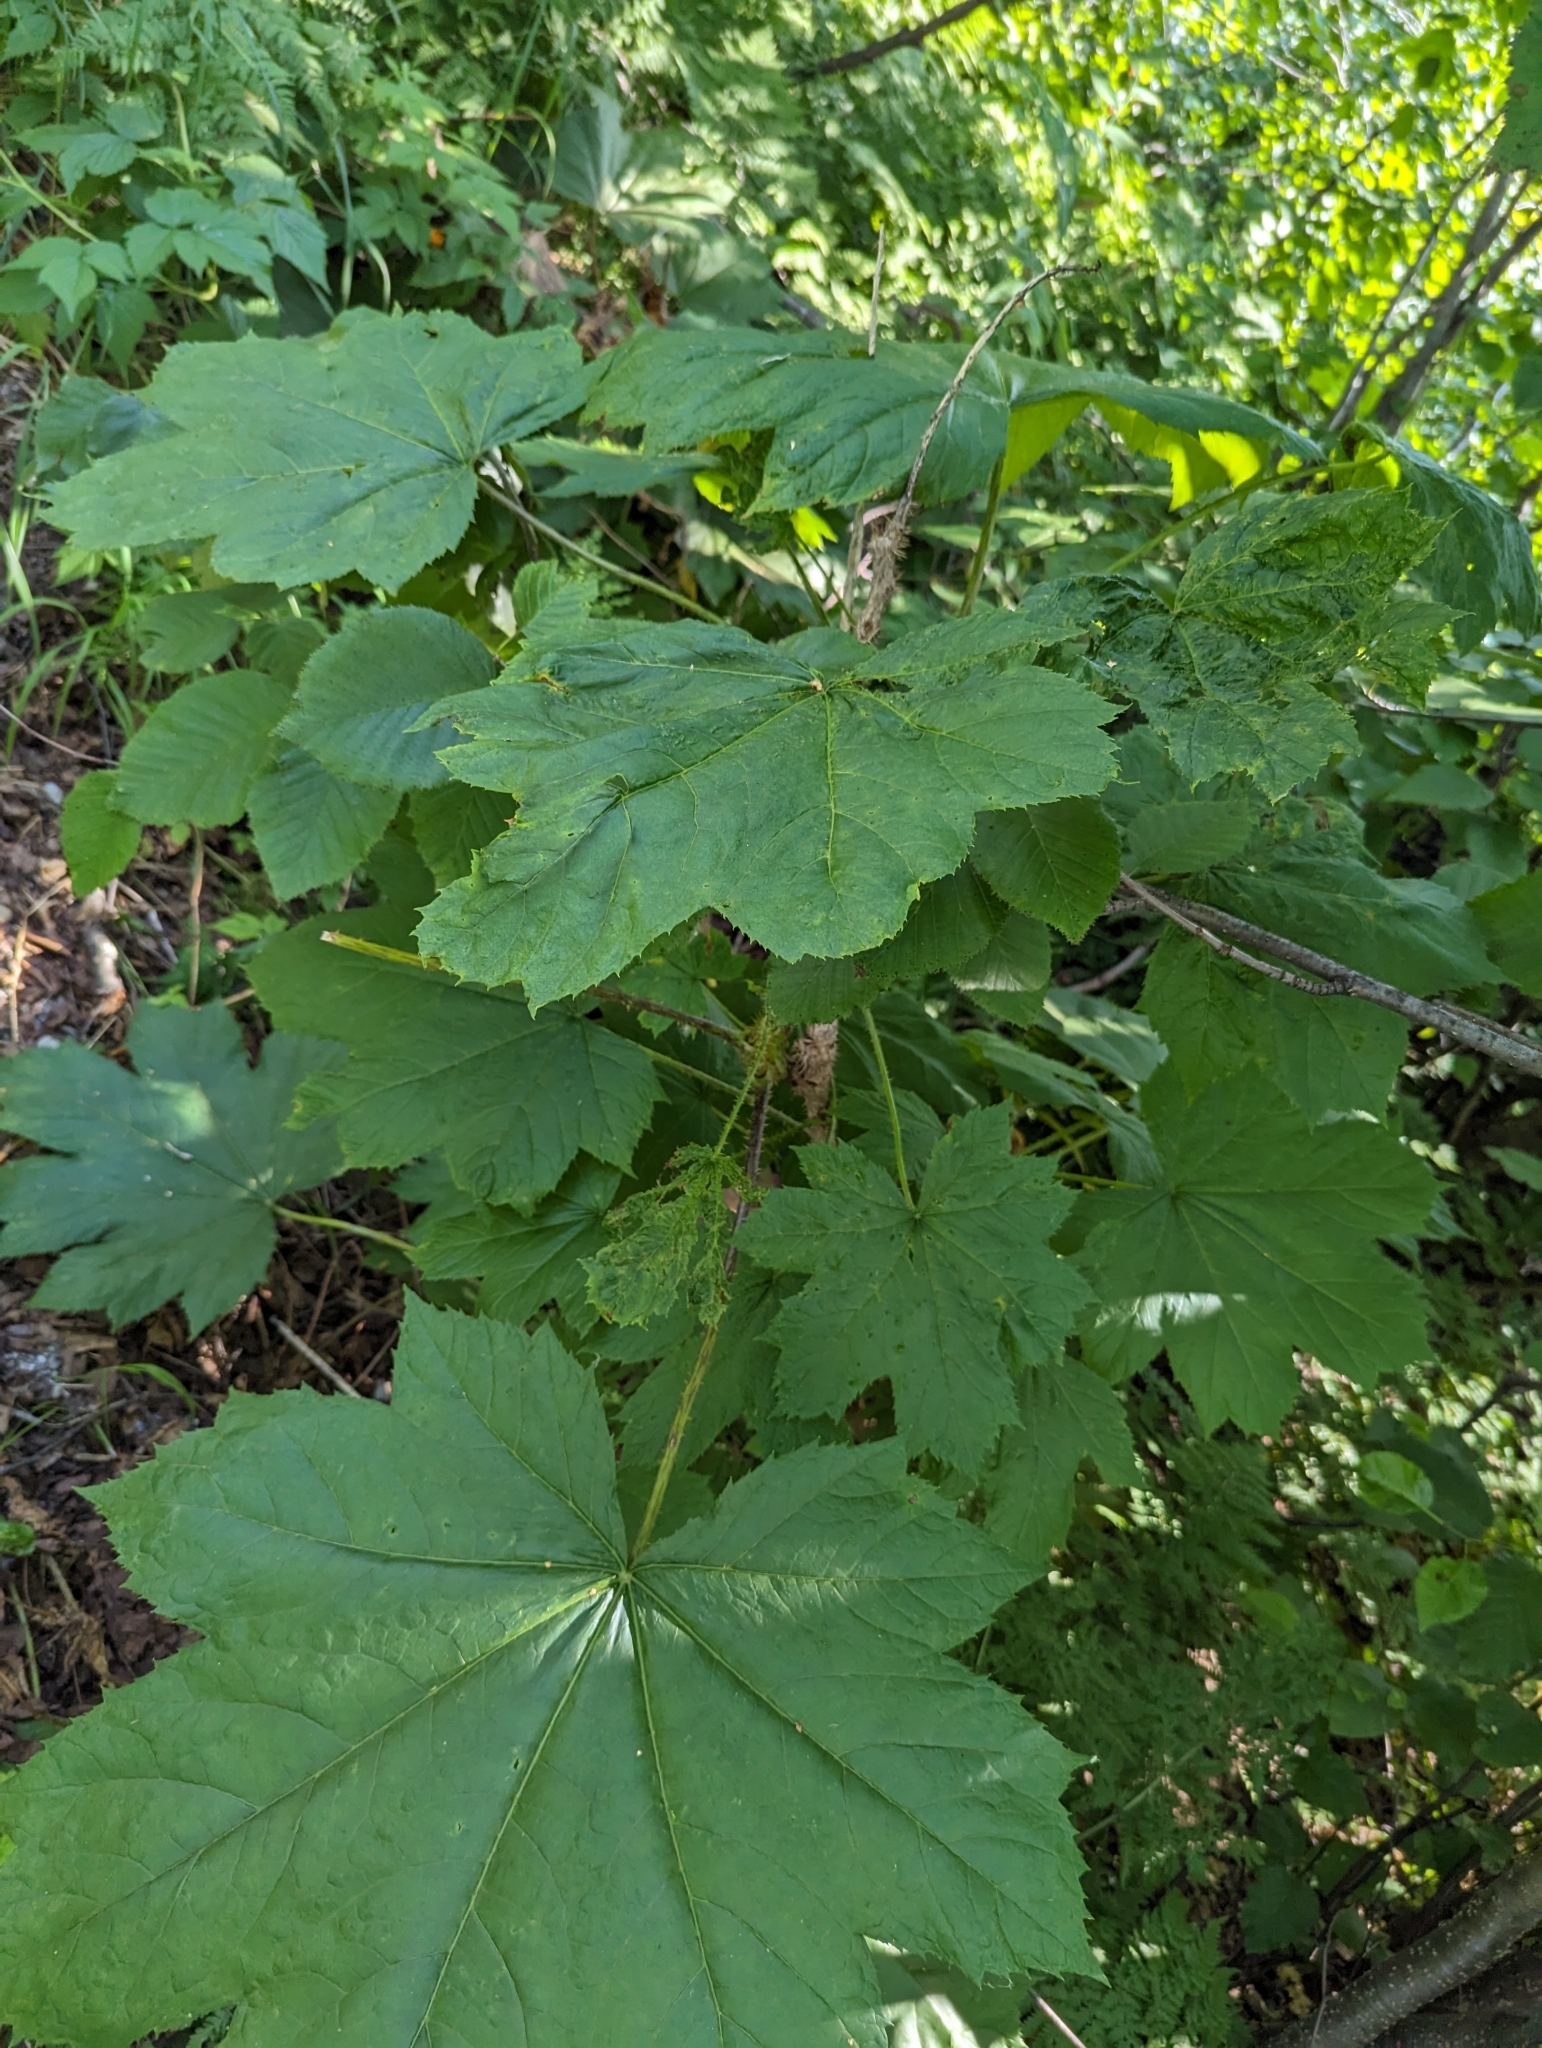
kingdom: Plantae
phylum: Tracheophyta
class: Magnoliopsida
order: Apiales
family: Araliaceae
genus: Oplopanax
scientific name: Oplopanax horridus
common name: Devil's walking-stick
